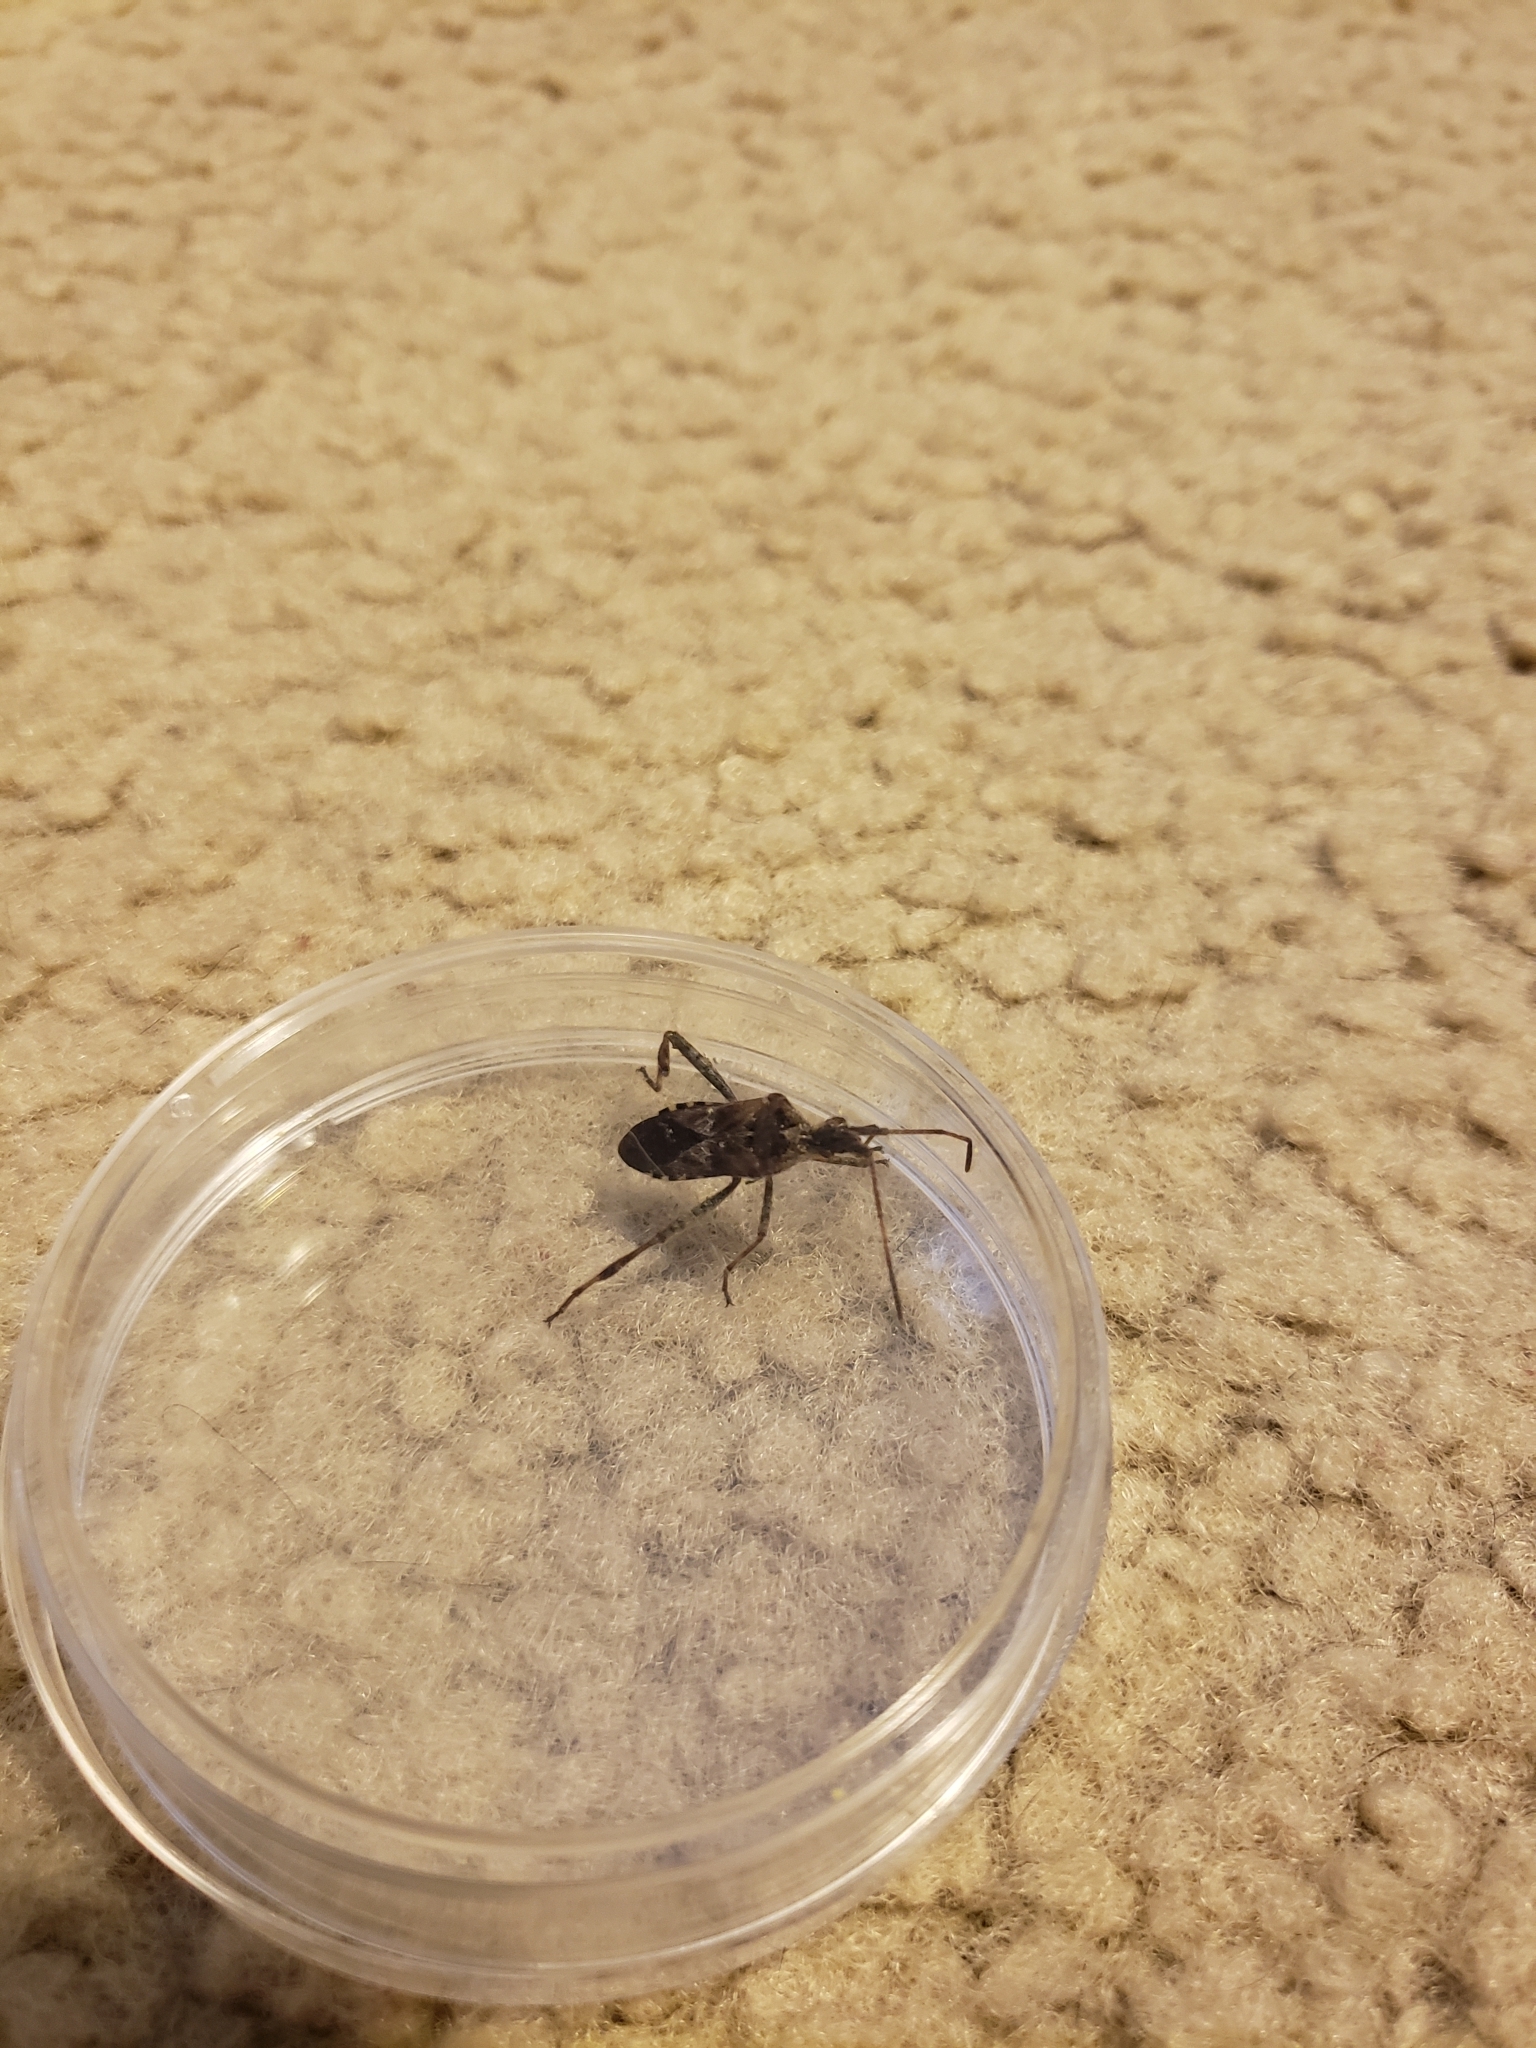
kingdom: Animalia
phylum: Arthropoda
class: Insecta
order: Hemiptera
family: Coreidae
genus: Leptoglossus
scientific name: Leptoglossus occidentalis
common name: Western conifer-seed bug
